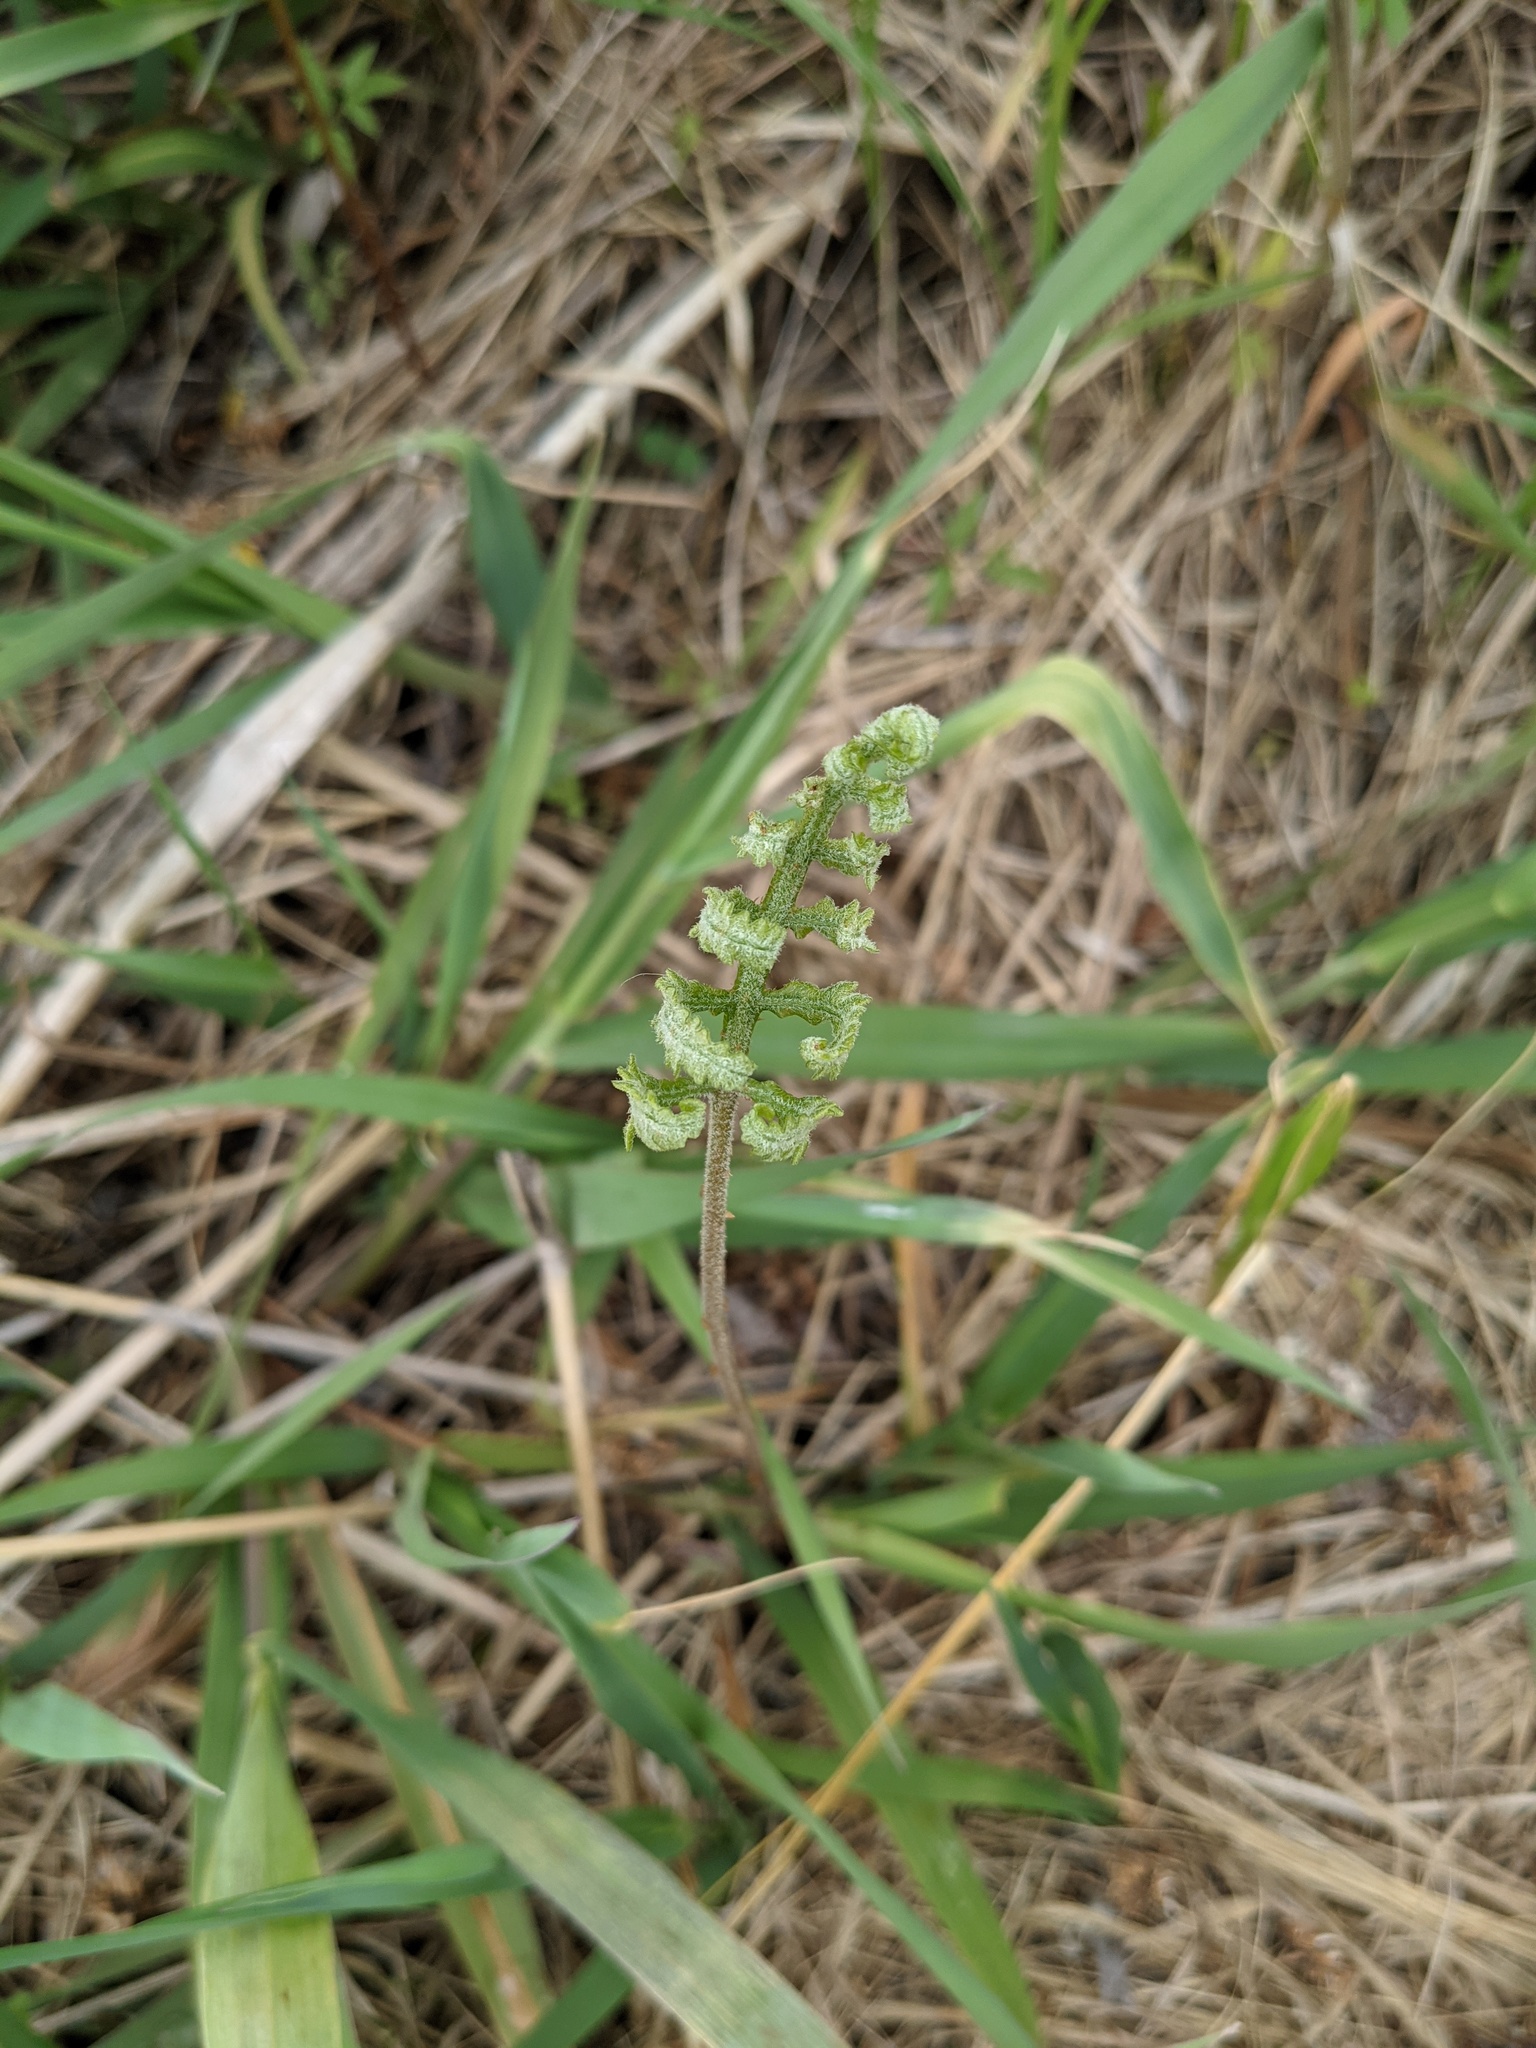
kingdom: Plantae
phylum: Tracheophyta
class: Polypodiopsida
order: Polypodiales
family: Onocleaceae
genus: Onoclea
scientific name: Onoclea sensibilis
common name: Sensitive fern
